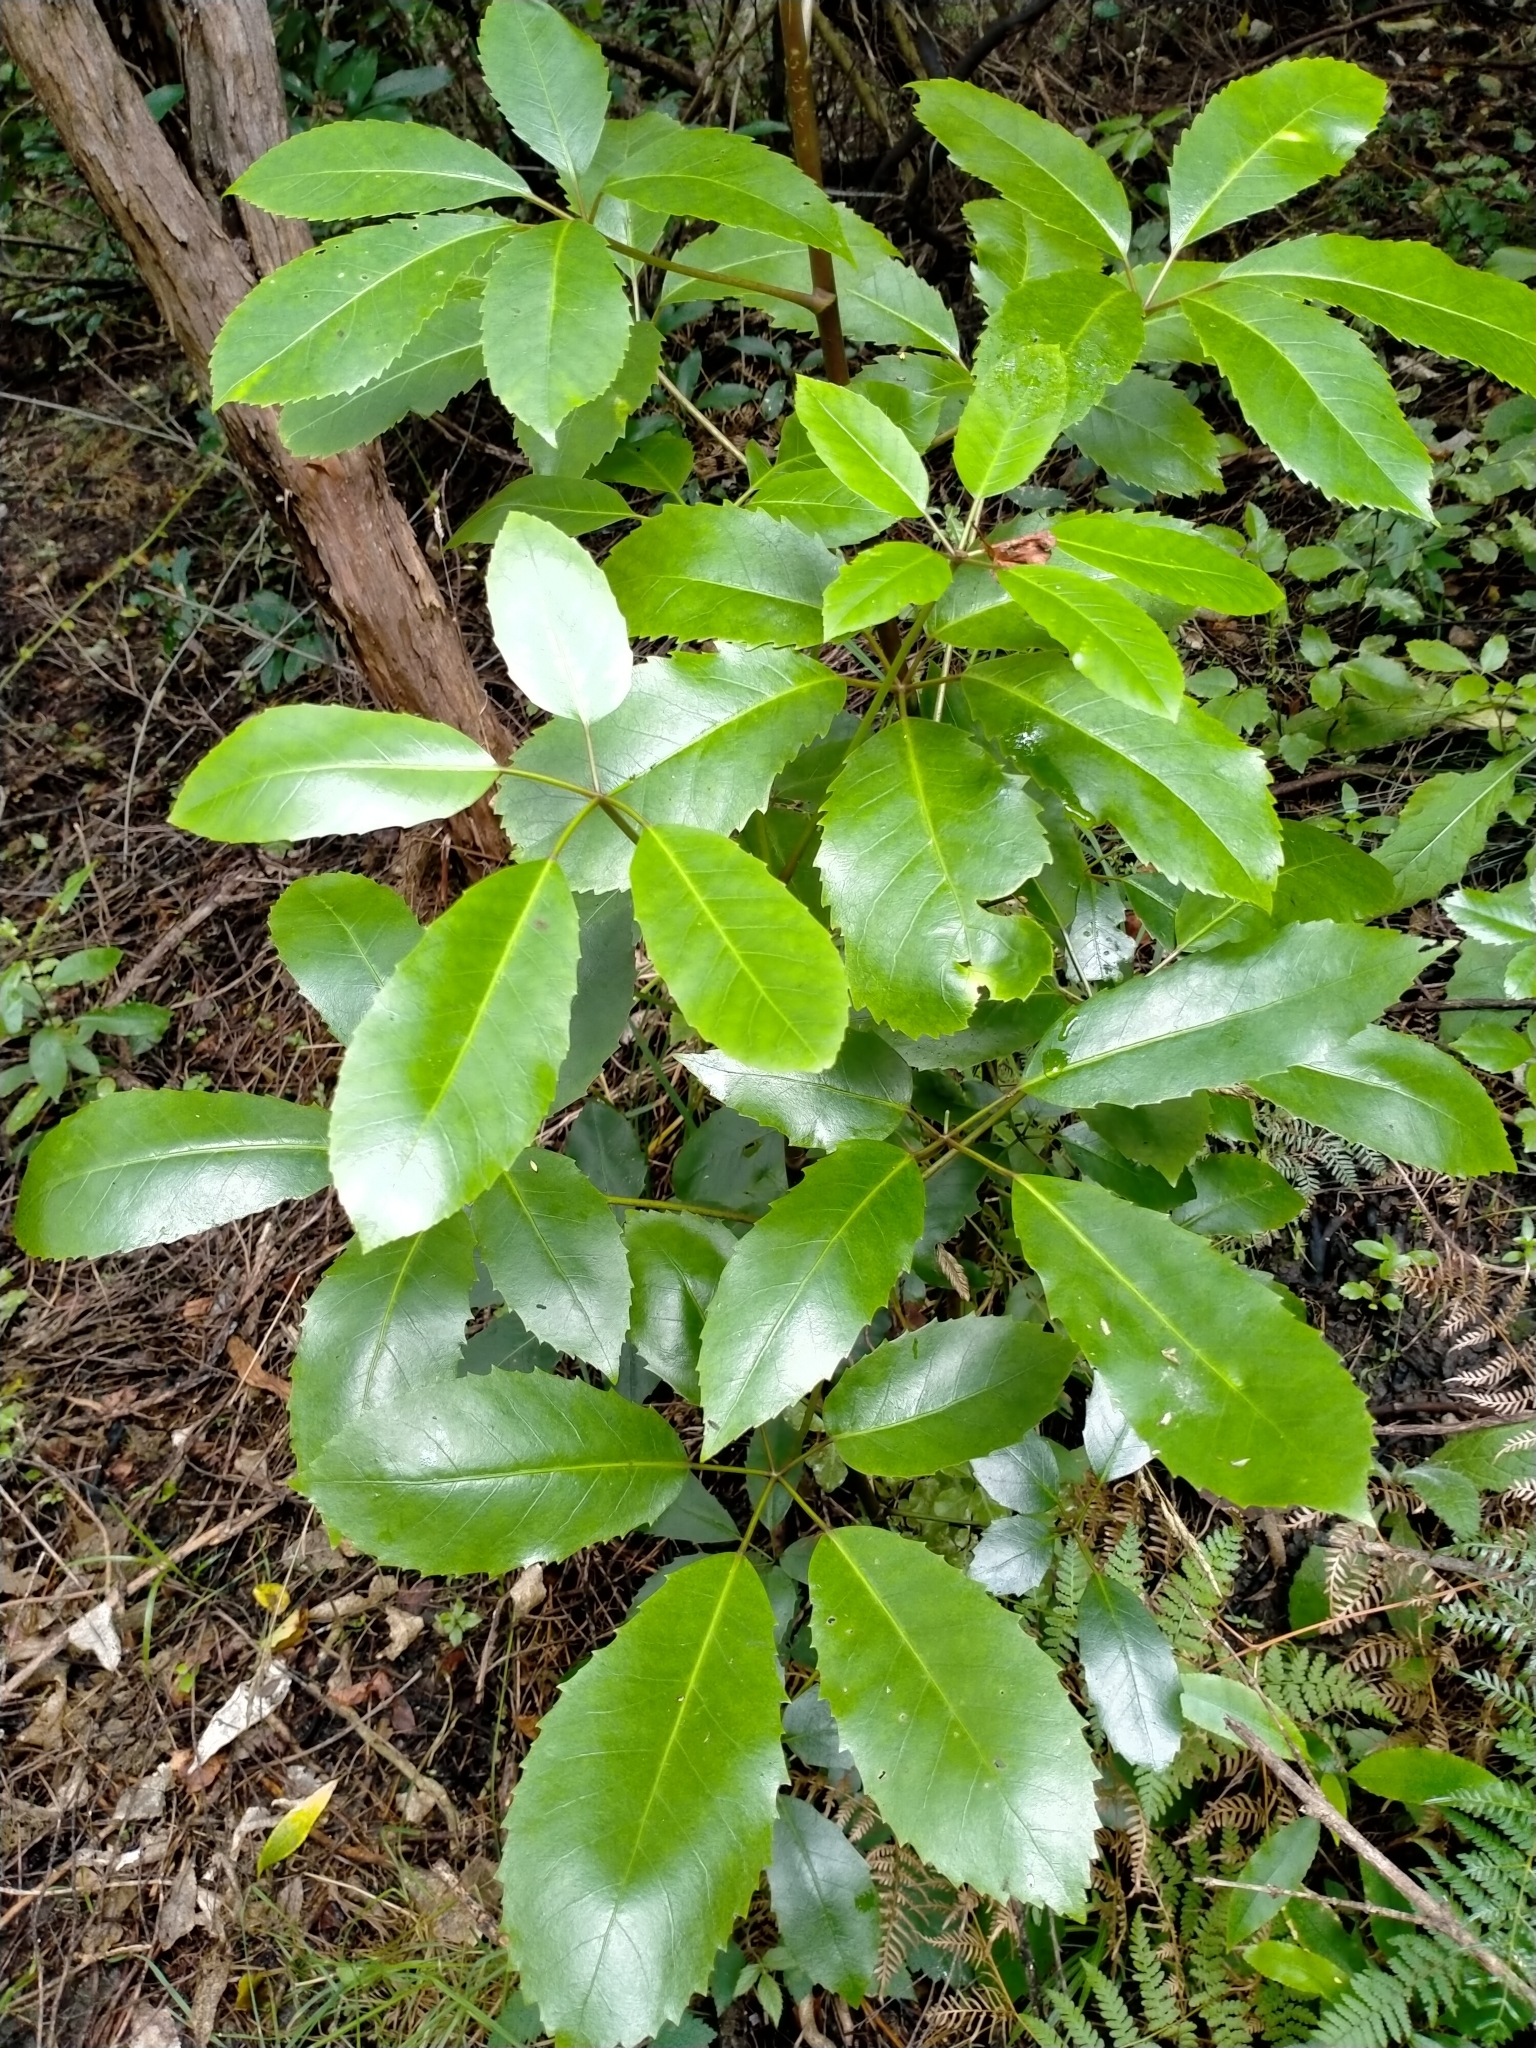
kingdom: Plantae
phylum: Tracheophyta
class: Magnoliopsida
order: Apiales
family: Araliaceae
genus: Neopanax
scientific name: Neopanax arboreus
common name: Five-fingers
